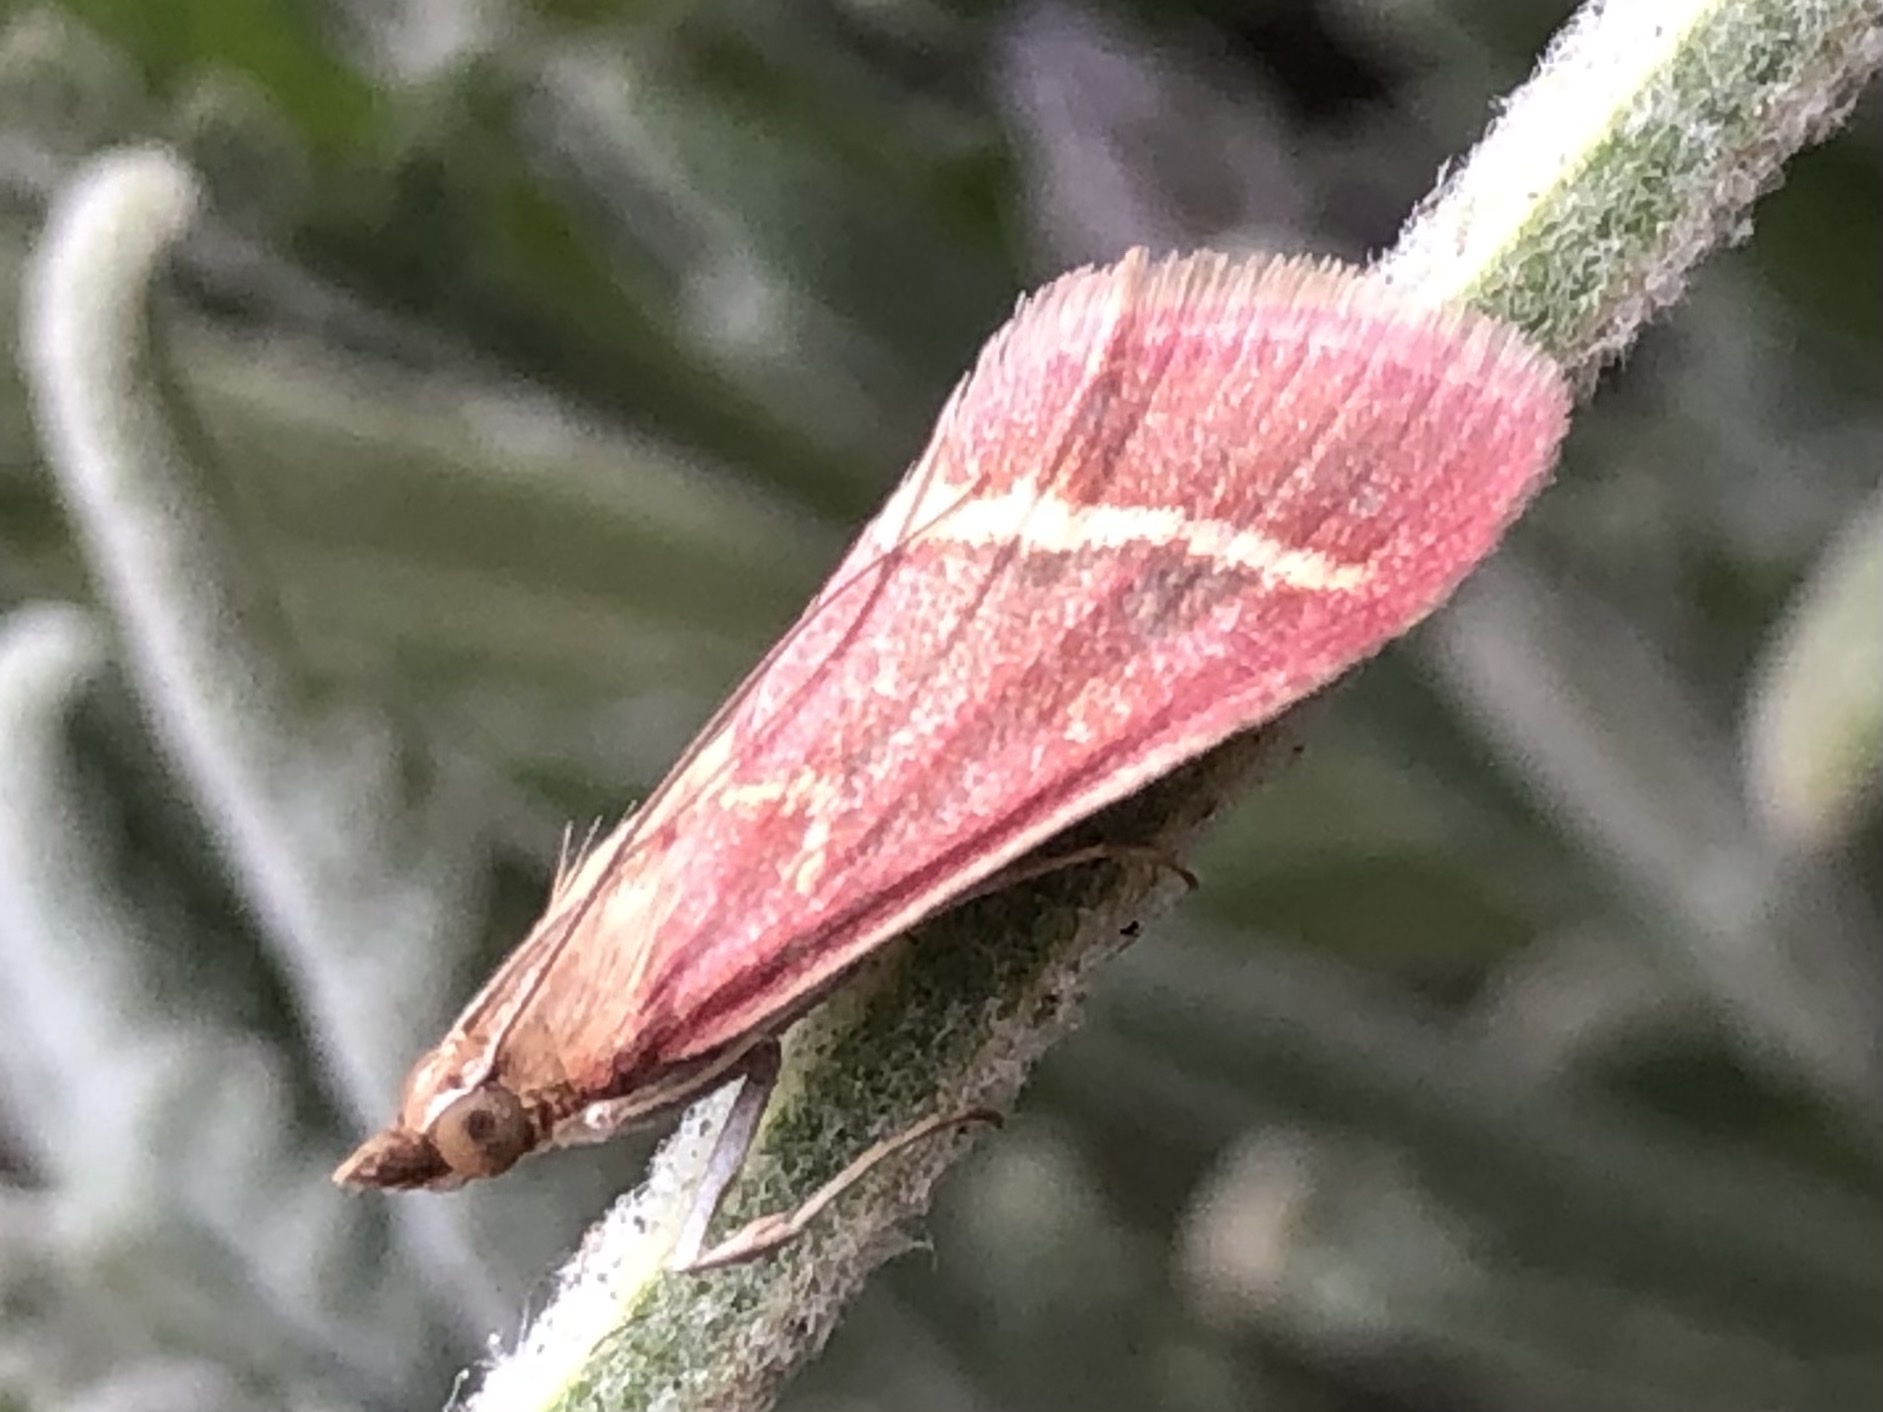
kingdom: Animalia
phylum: Arthropoda
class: Insecta
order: Lepidoptera
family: Crambidae
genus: Pyrausta
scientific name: Pyrausta volupialis
